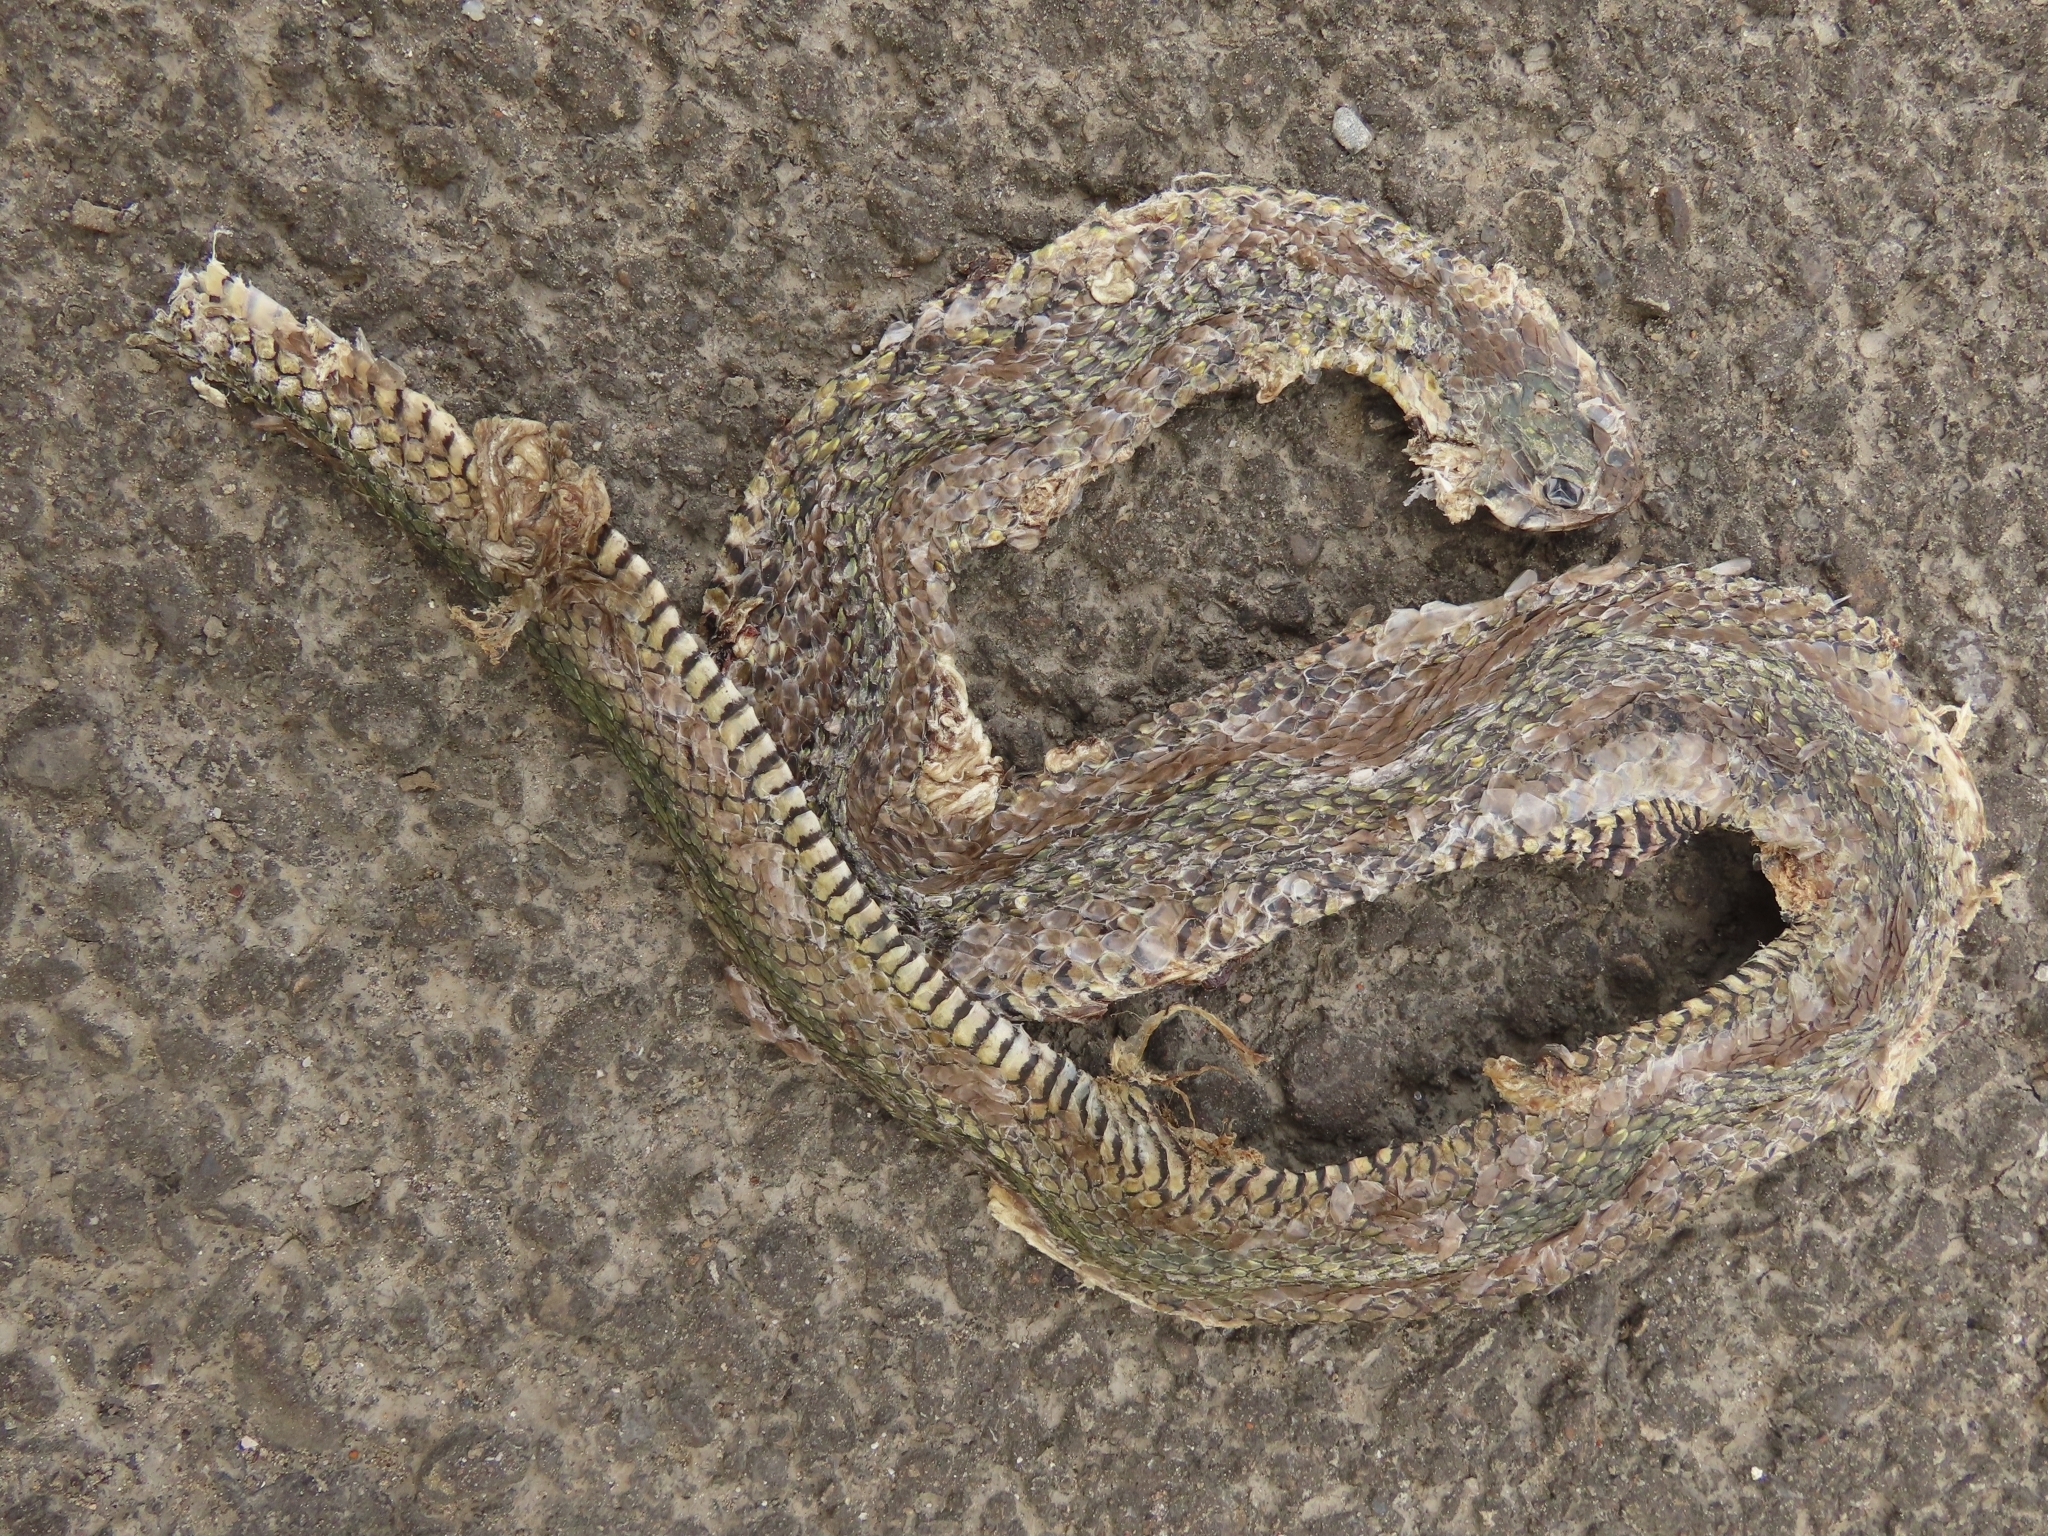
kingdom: Animalia
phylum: Chordata
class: Squamata
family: Colubridae
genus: Fowlea
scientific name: Fowlea flavipunctatus
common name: Yellow-spotted keelback
